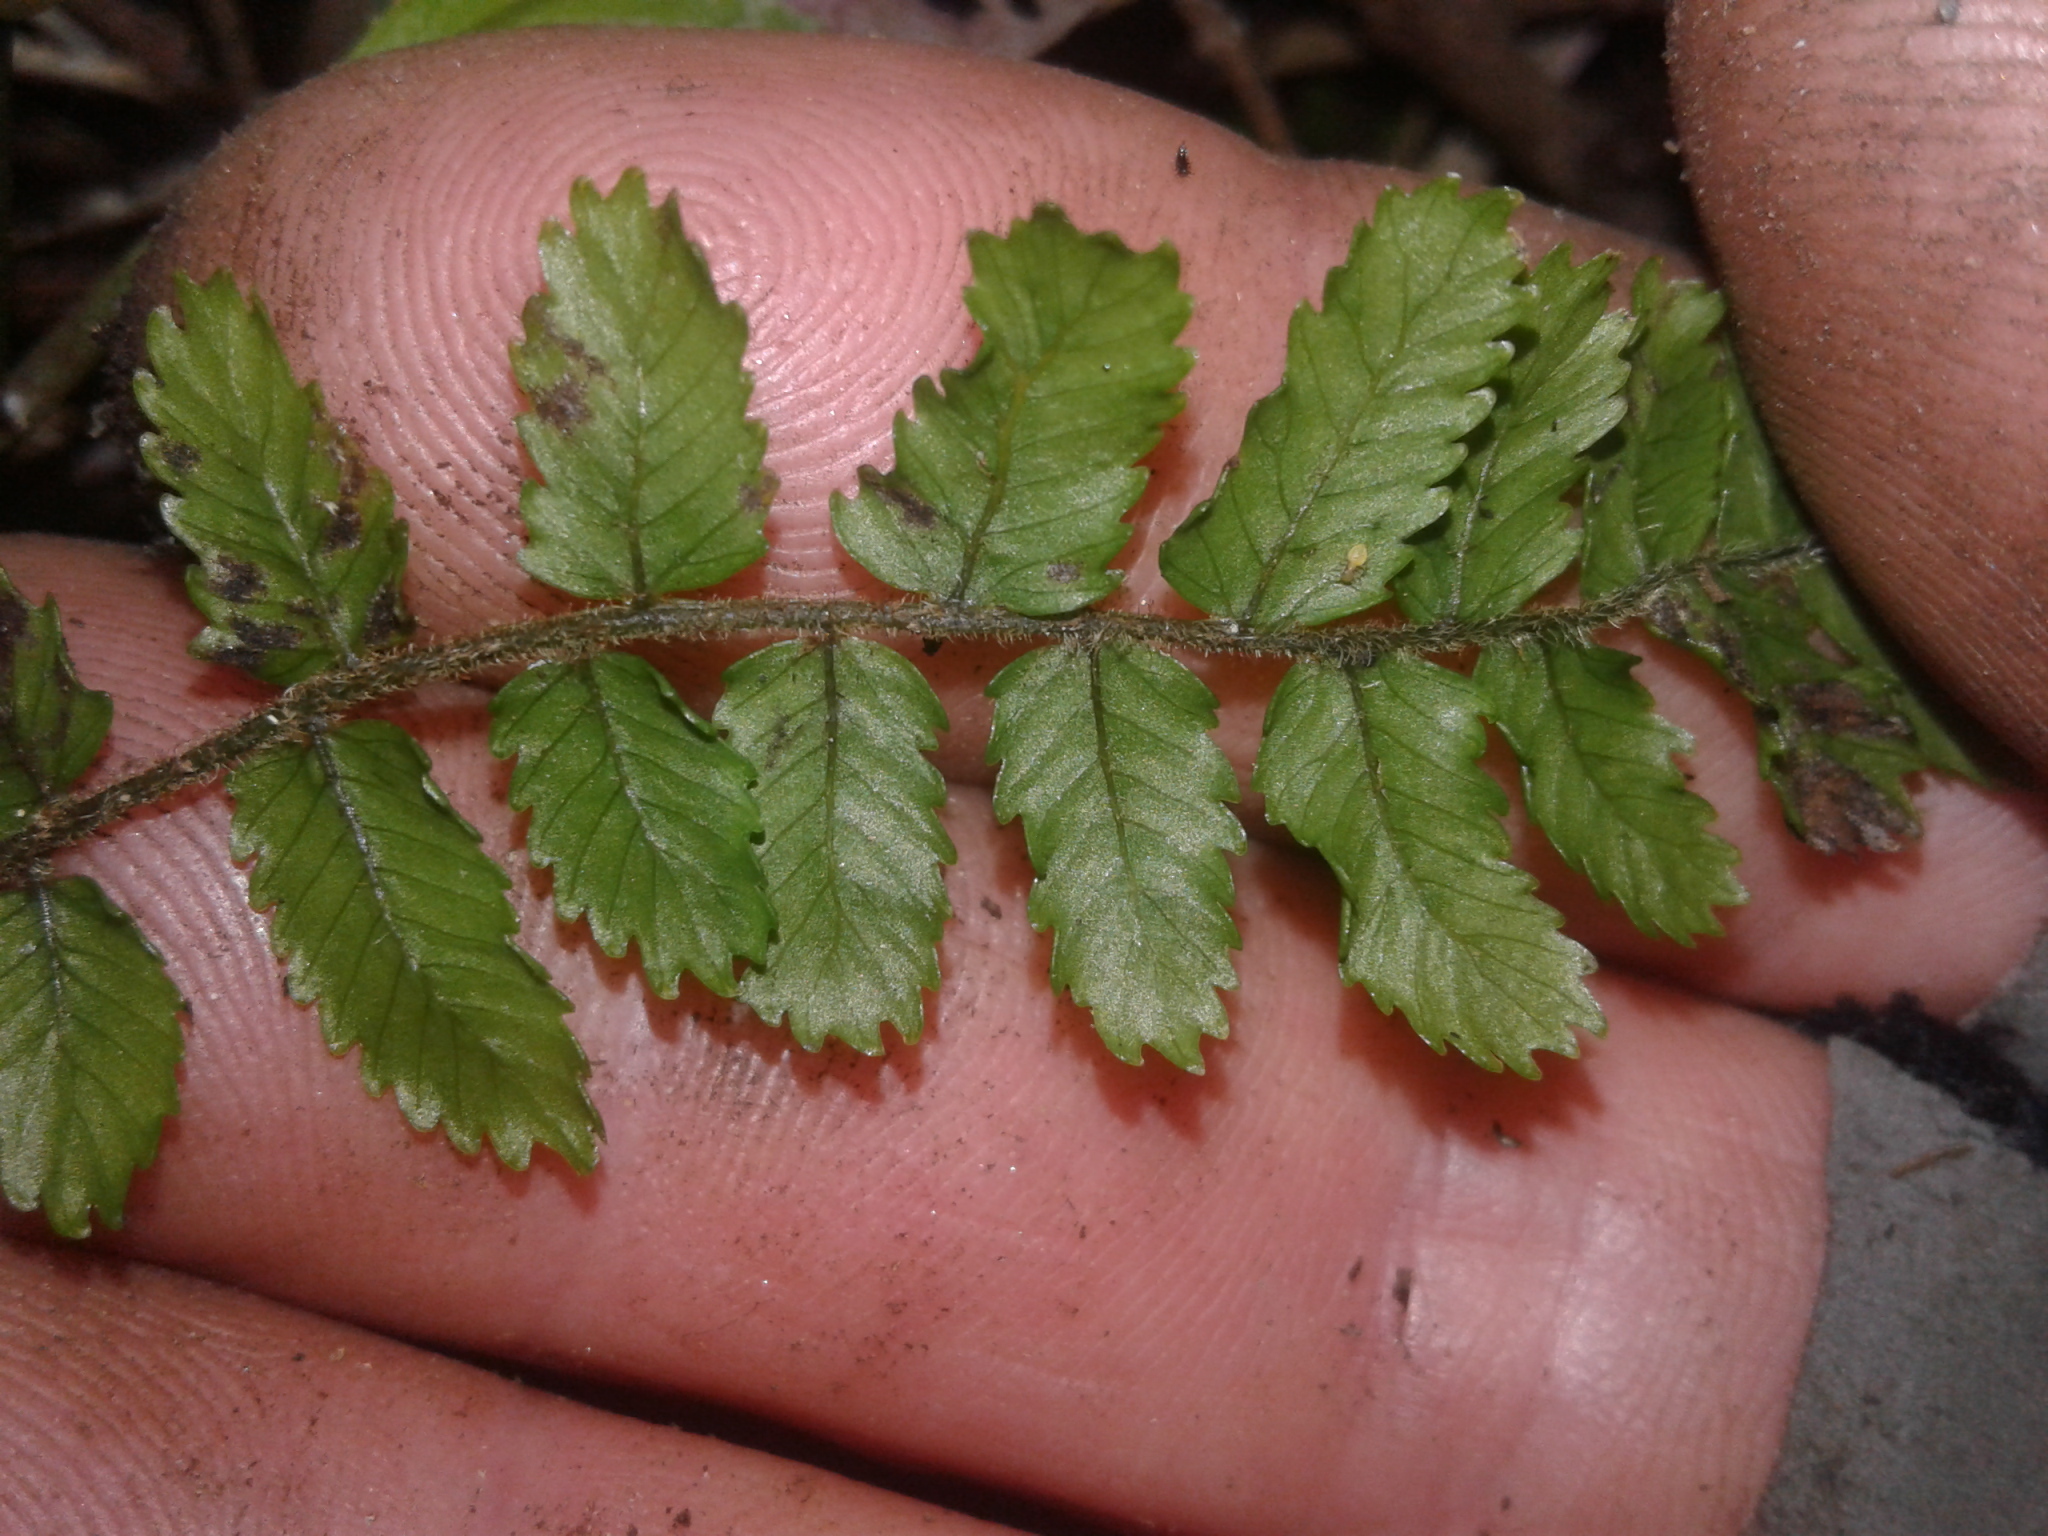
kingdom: Plantae
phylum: Tracheophyta
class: Polypodiopsida
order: Polypodiales
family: Blechnaceae
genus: Icarus
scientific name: Icarus filiformis
